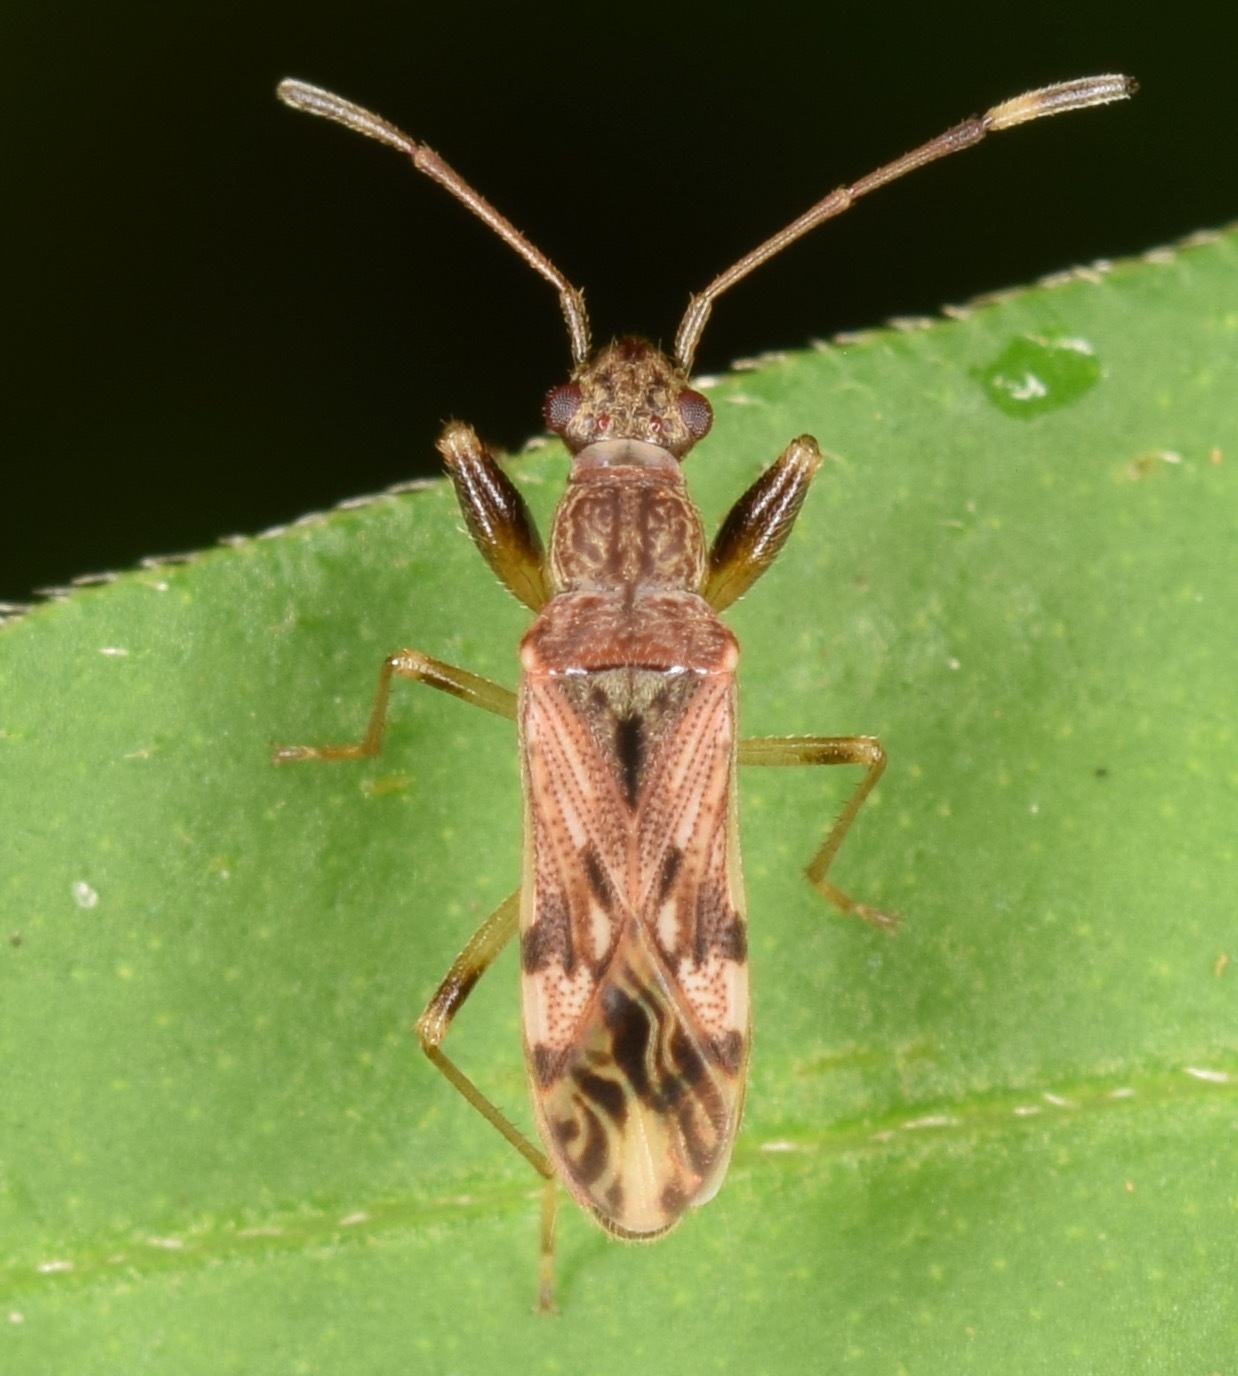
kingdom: Animalia
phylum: Arthropoda
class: Insecta
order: Hemiptera
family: Rhyparochromidae
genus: Neopamera
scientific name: Neopamera albocincta
